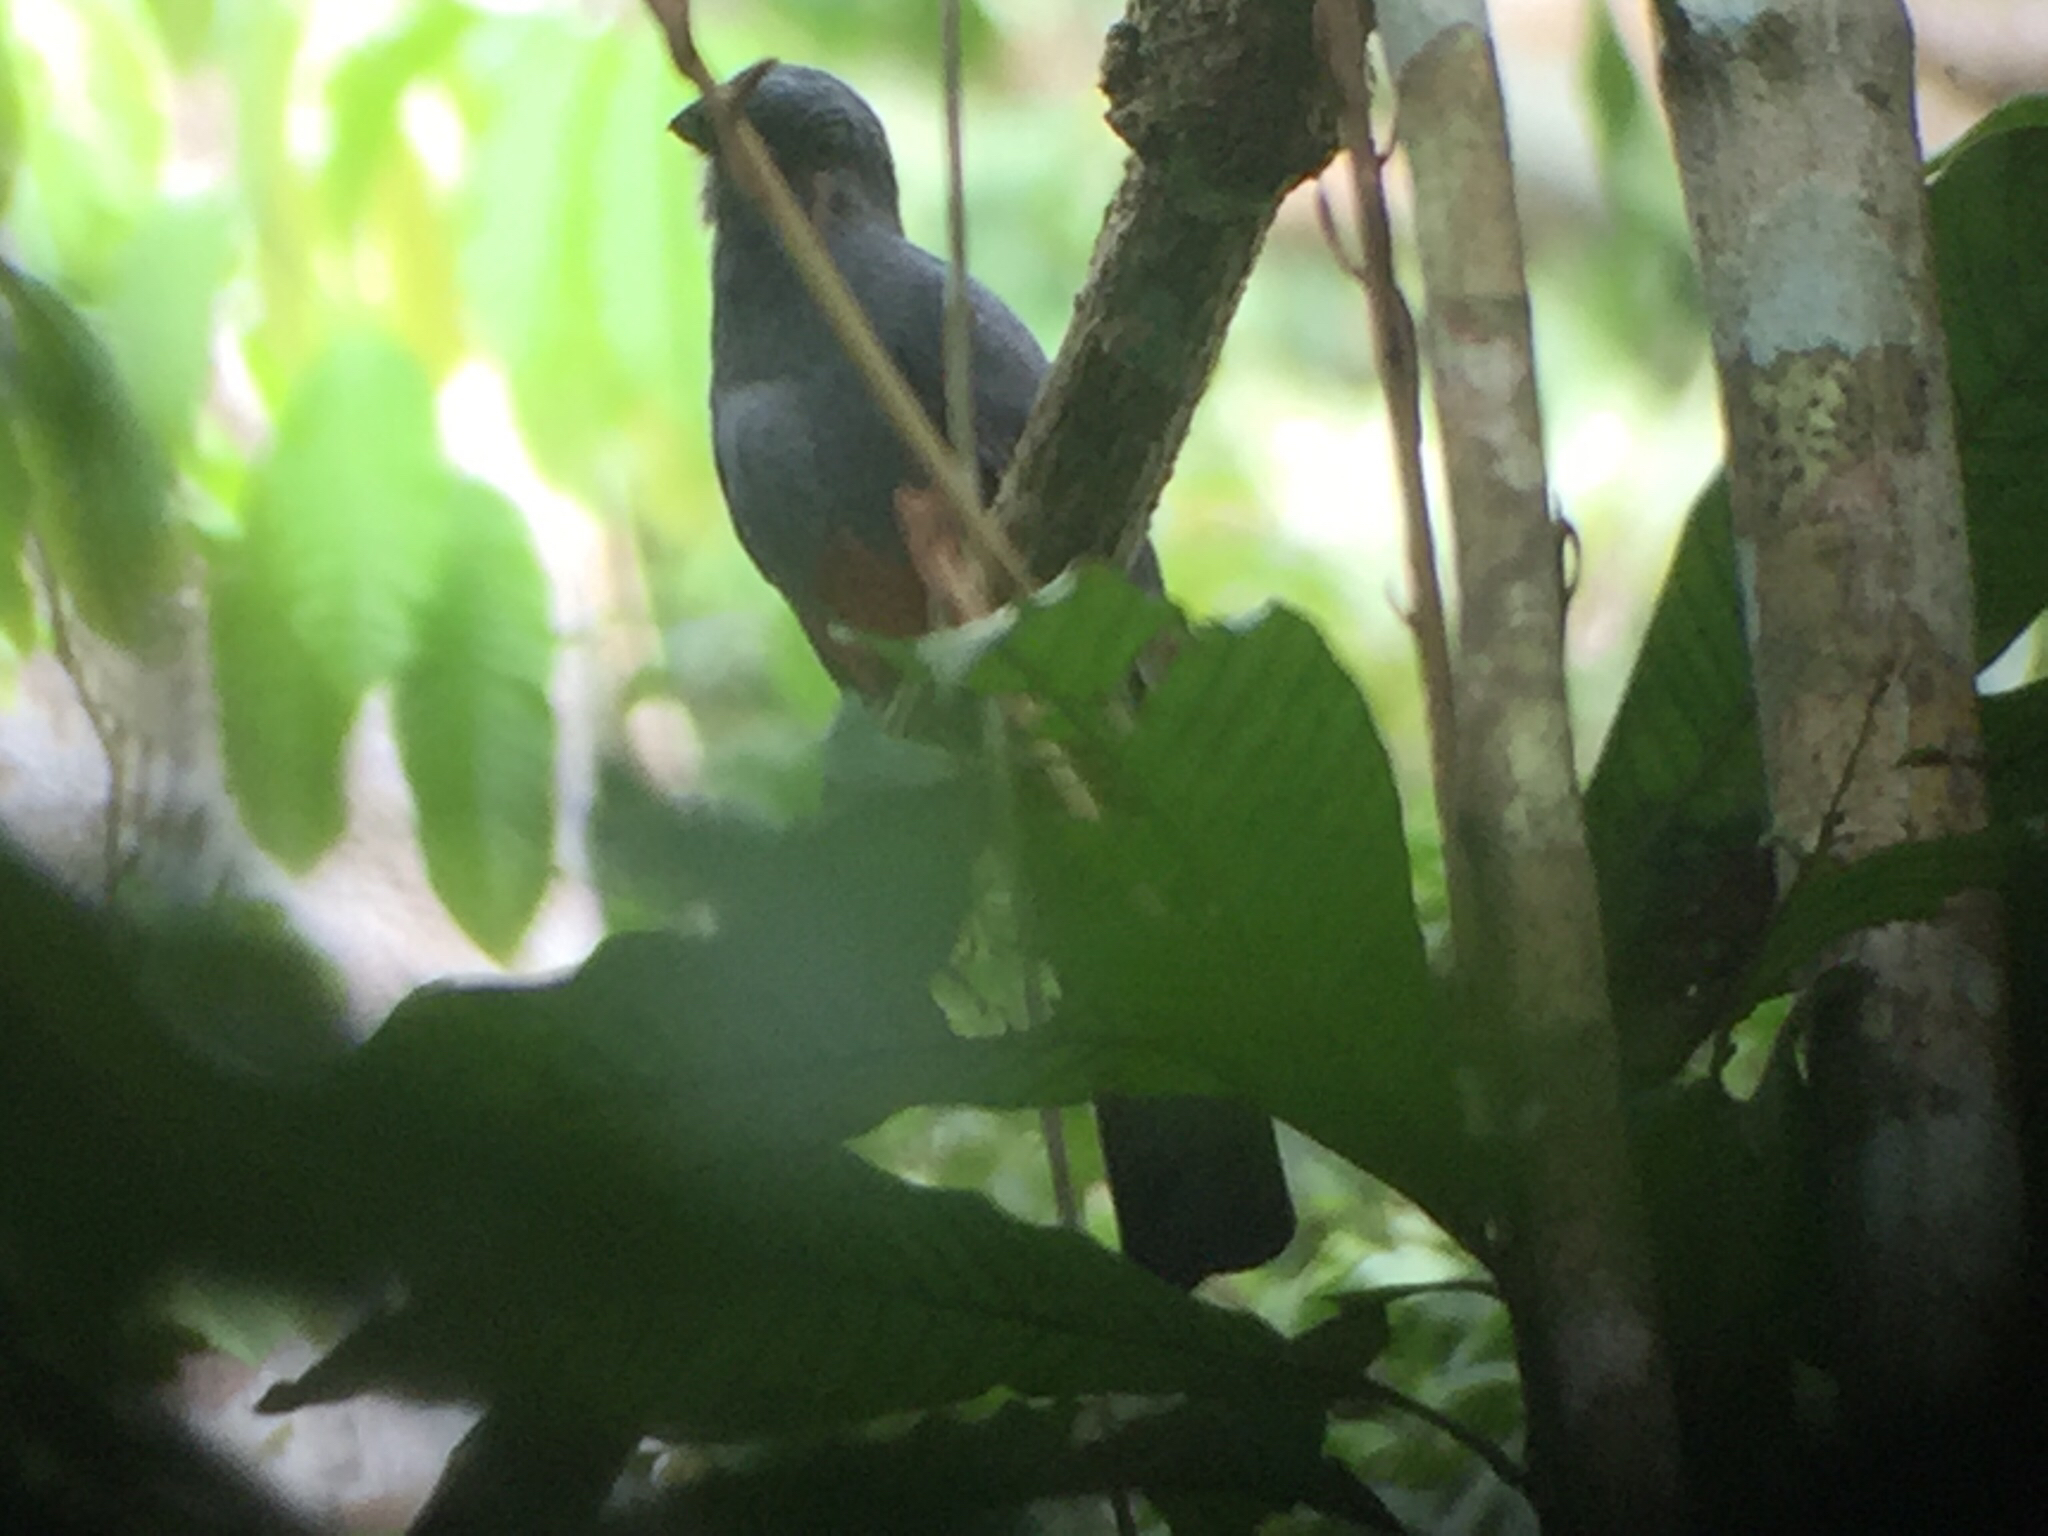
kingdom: Animalia
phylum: Chordata
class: Aves
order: Trogoniformes
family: Trogonidae
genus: Trogon
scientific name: Trogon massena
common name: Slaty-tailed trogon
